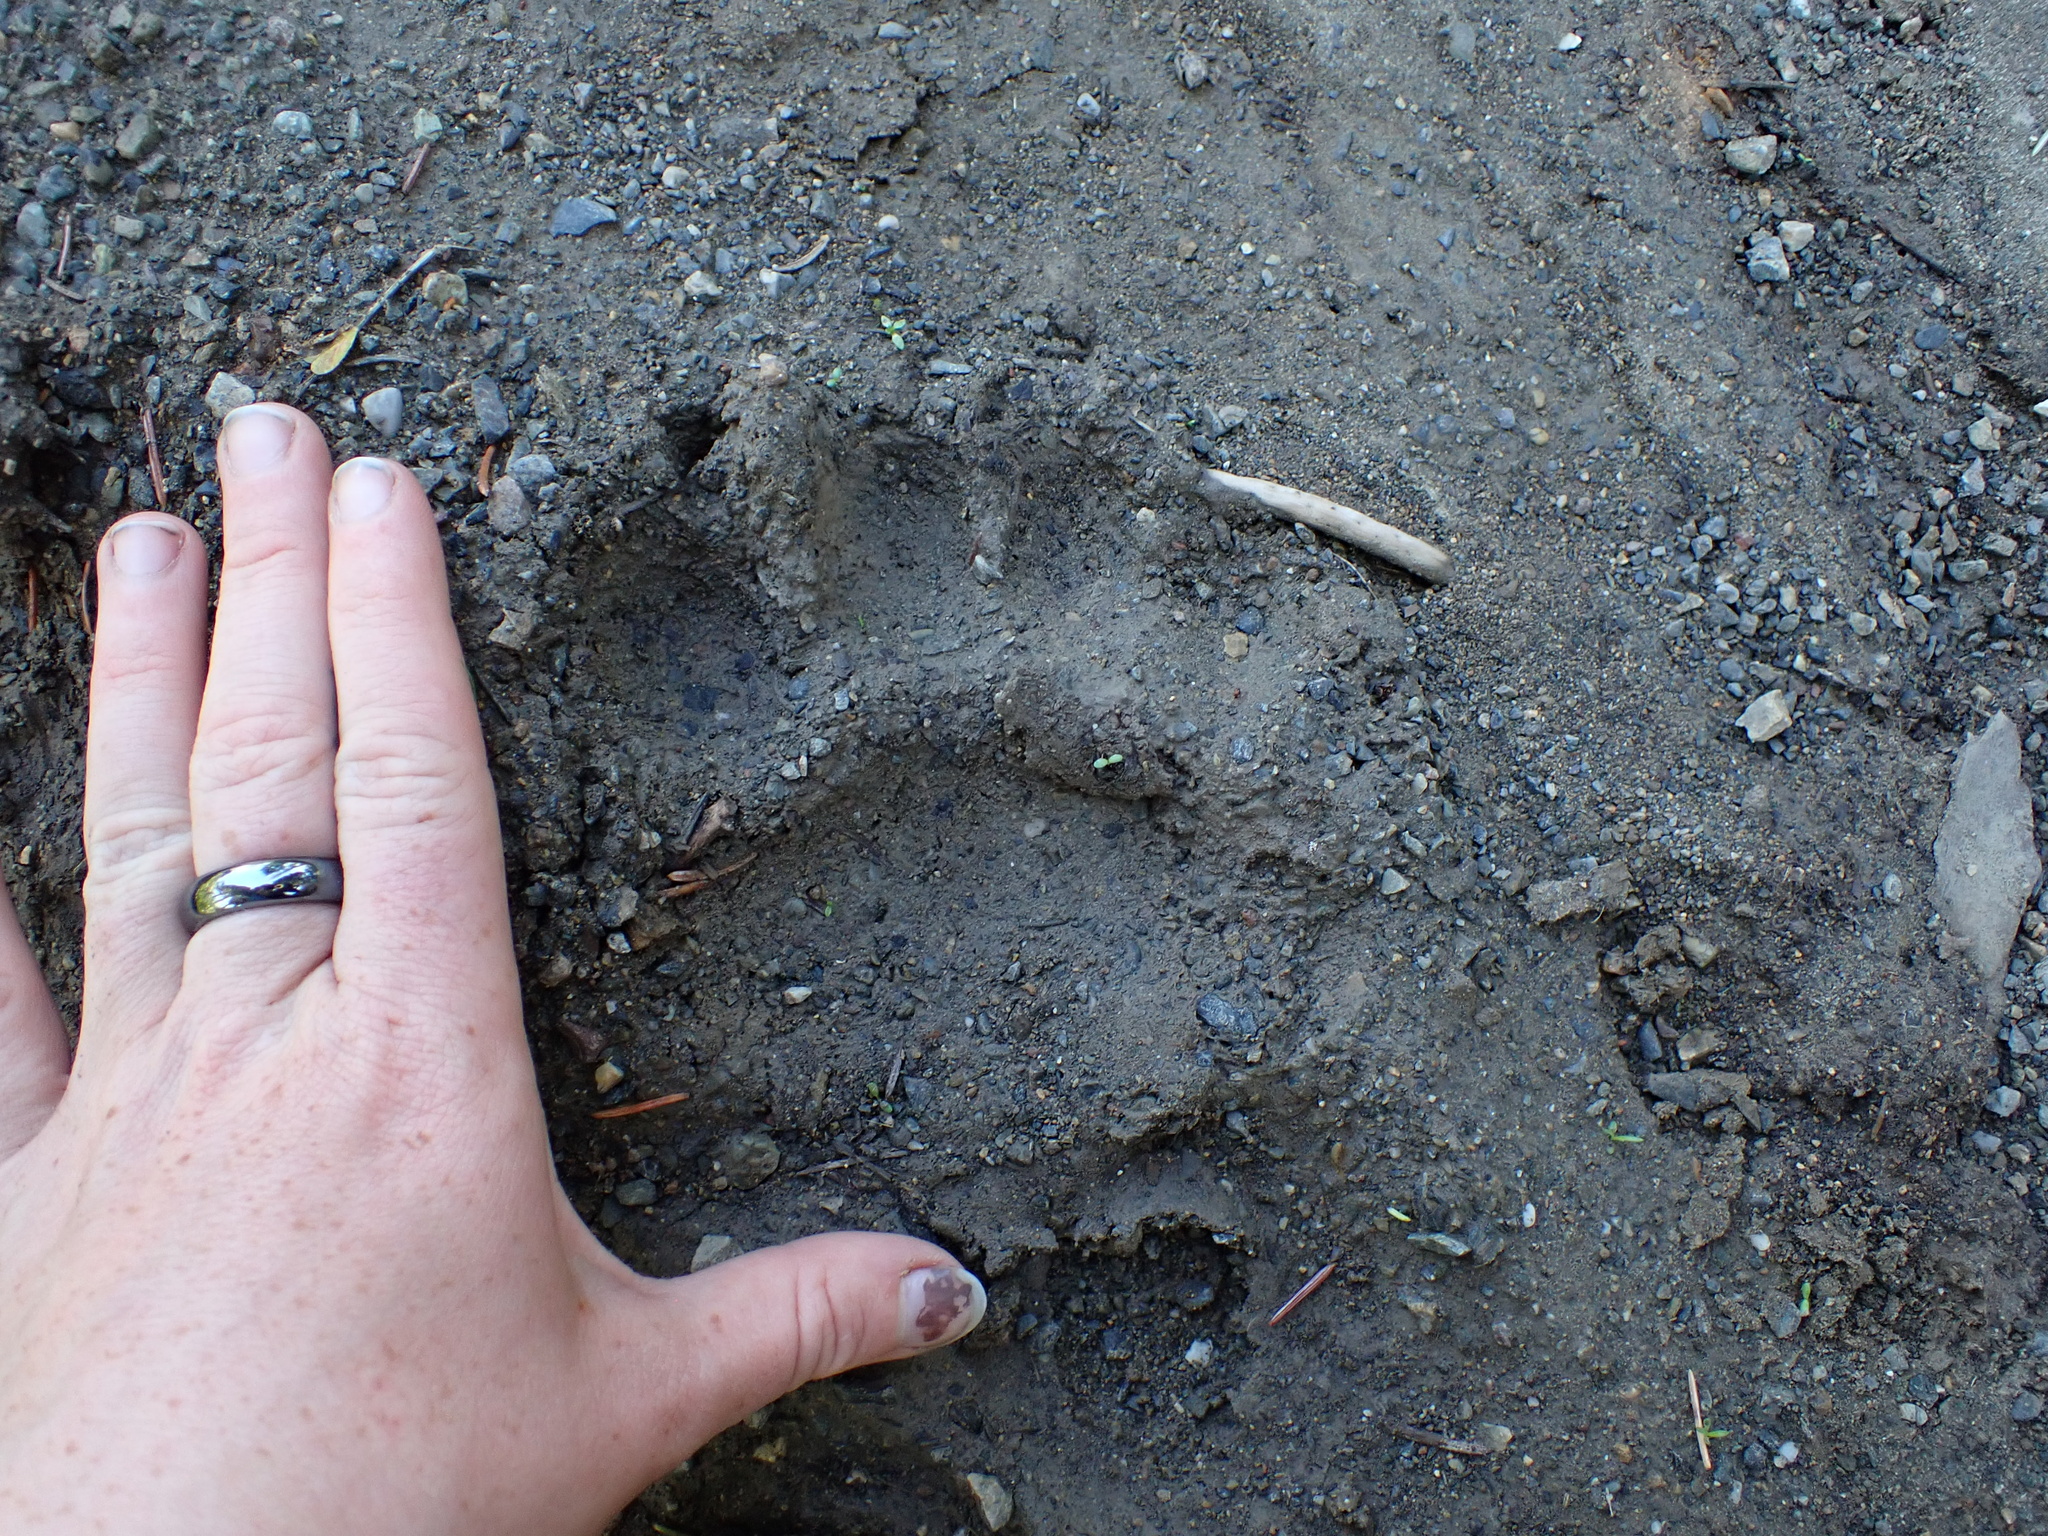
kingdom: Animalia
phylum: Chordata
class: Mammalia
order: Carnivora
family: Ursidae
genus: Ursus
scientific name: Ursus americanus
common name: American black bear
